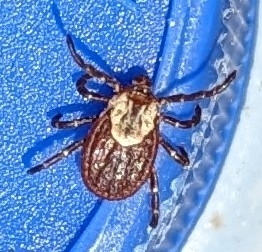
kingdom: Animalia
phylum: Arthropoda
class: Arachnida
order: Ixodida
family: Ixodidae
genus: Dermacentor
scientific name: Dermacentor variabilis
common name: American dog tick
